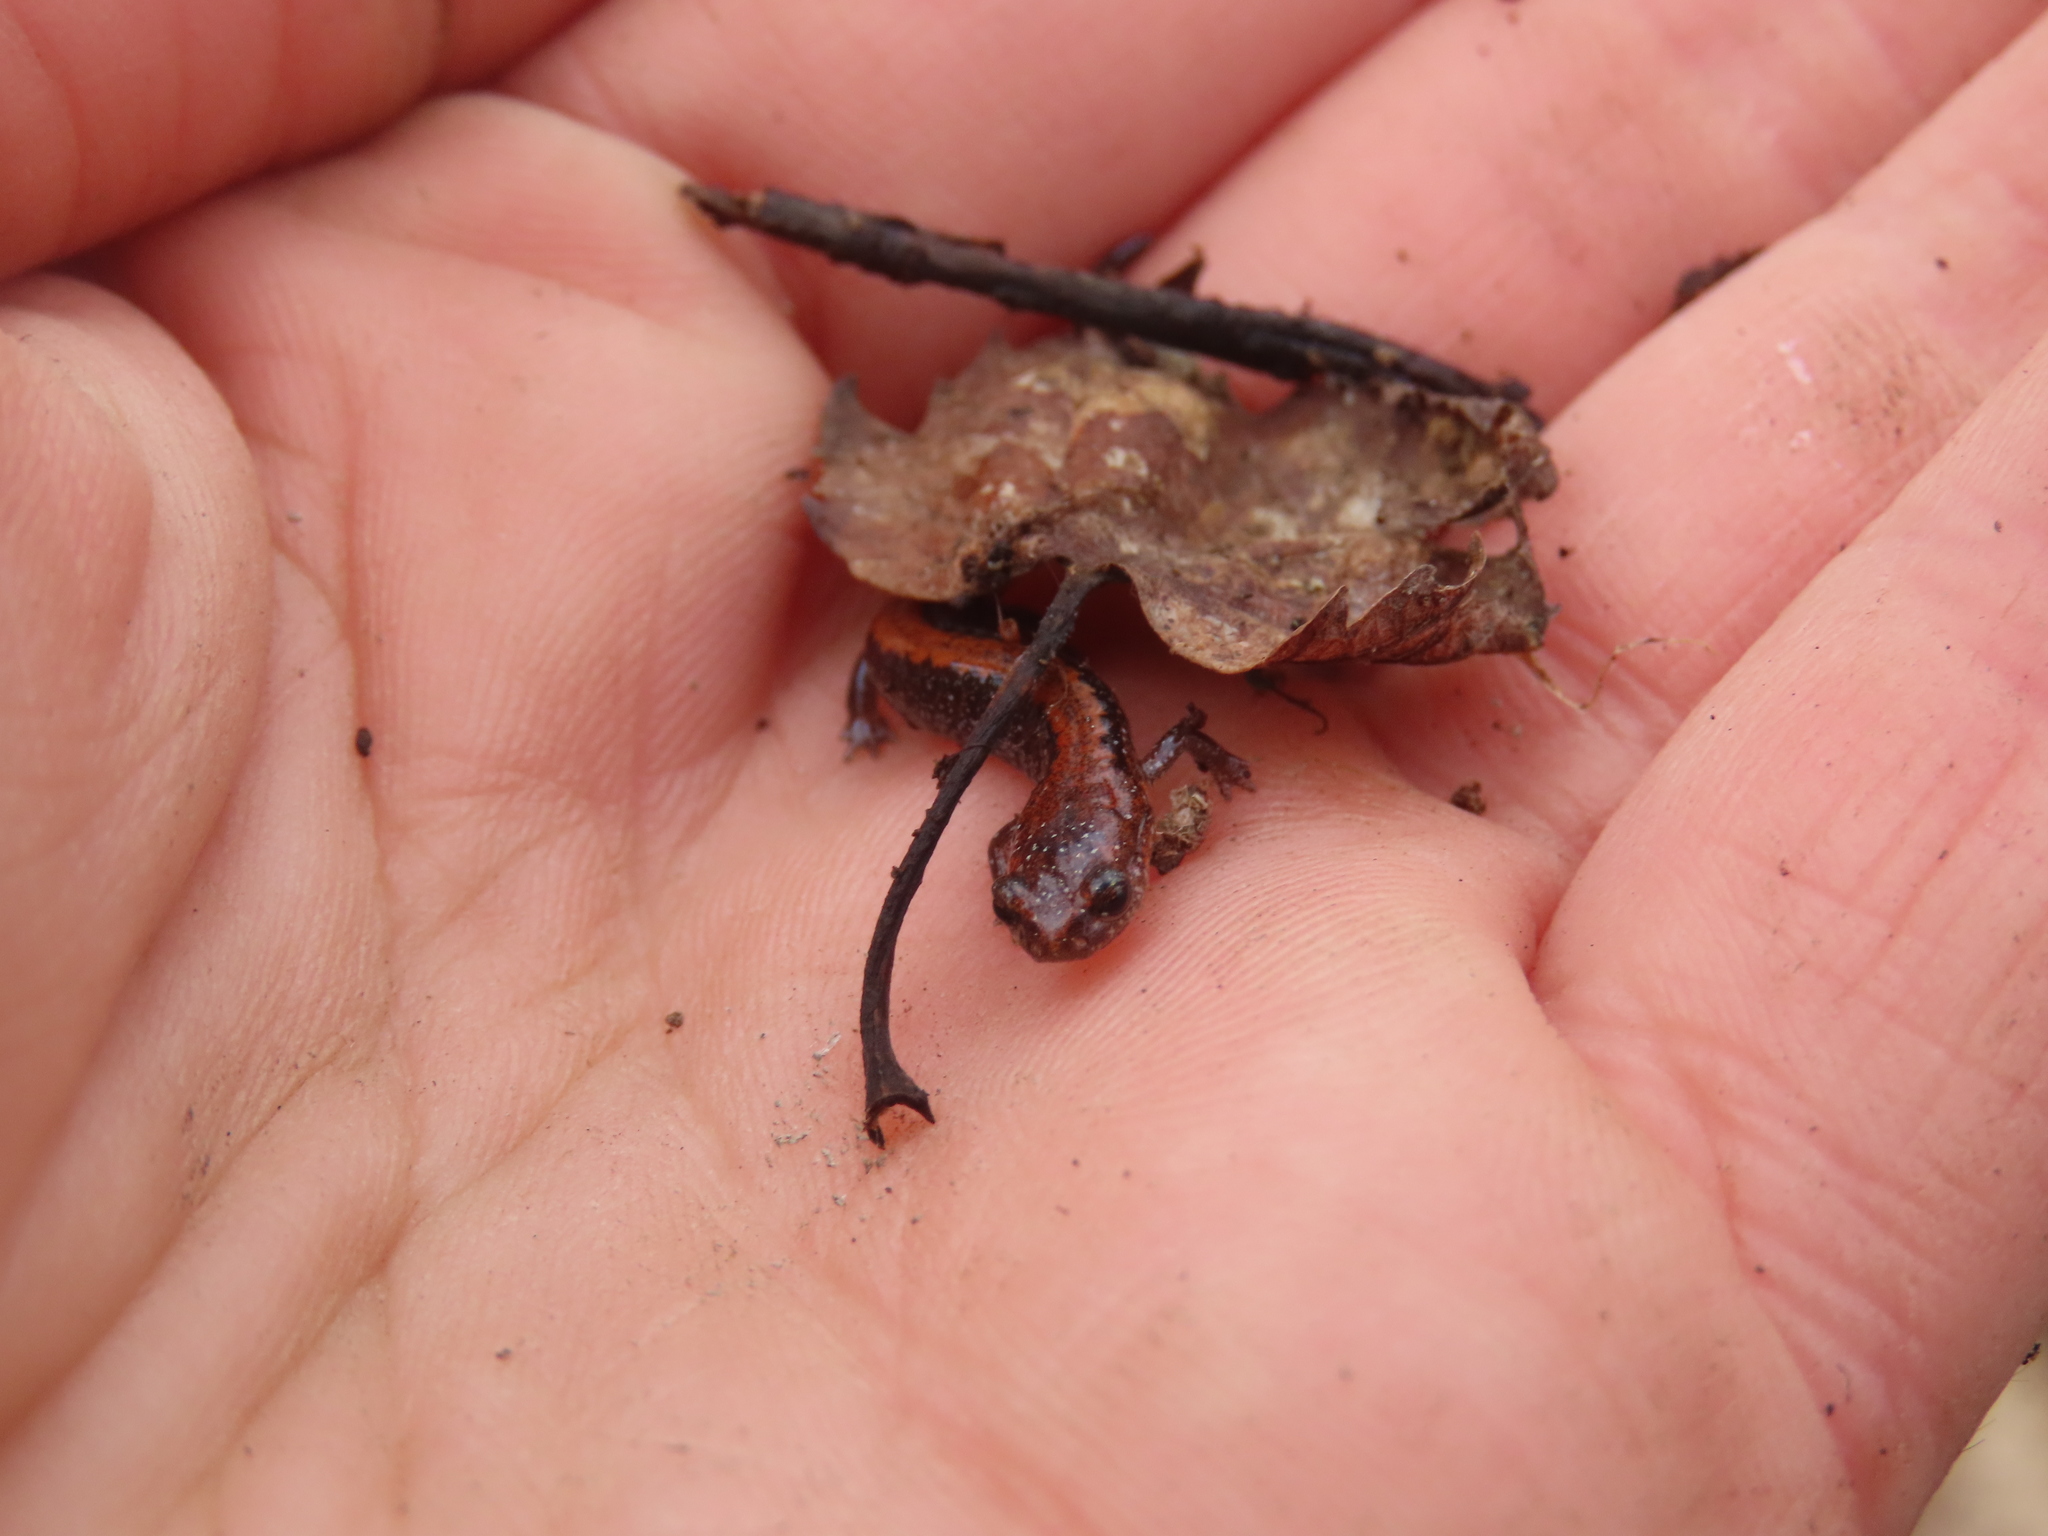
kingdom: Animalia
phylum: Chordata
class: Amphibia
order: Caudata
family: Plethodontidae
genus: Plethodon
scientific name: Plethodon cinereus
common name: Redback salamander
